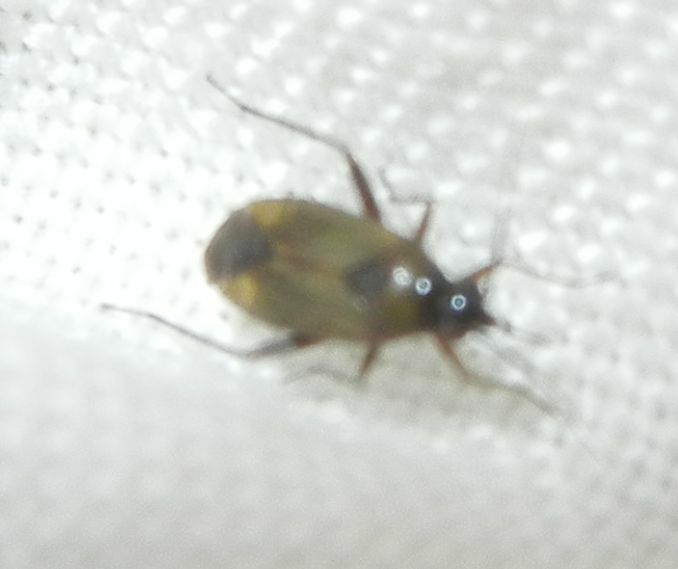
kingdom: Animalia
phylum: Arthropoda
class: Insecta
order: Hemiptera
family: Miridae
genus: Plagiognathus
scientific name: Plagiognathus arbustorum
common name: Plant bug
